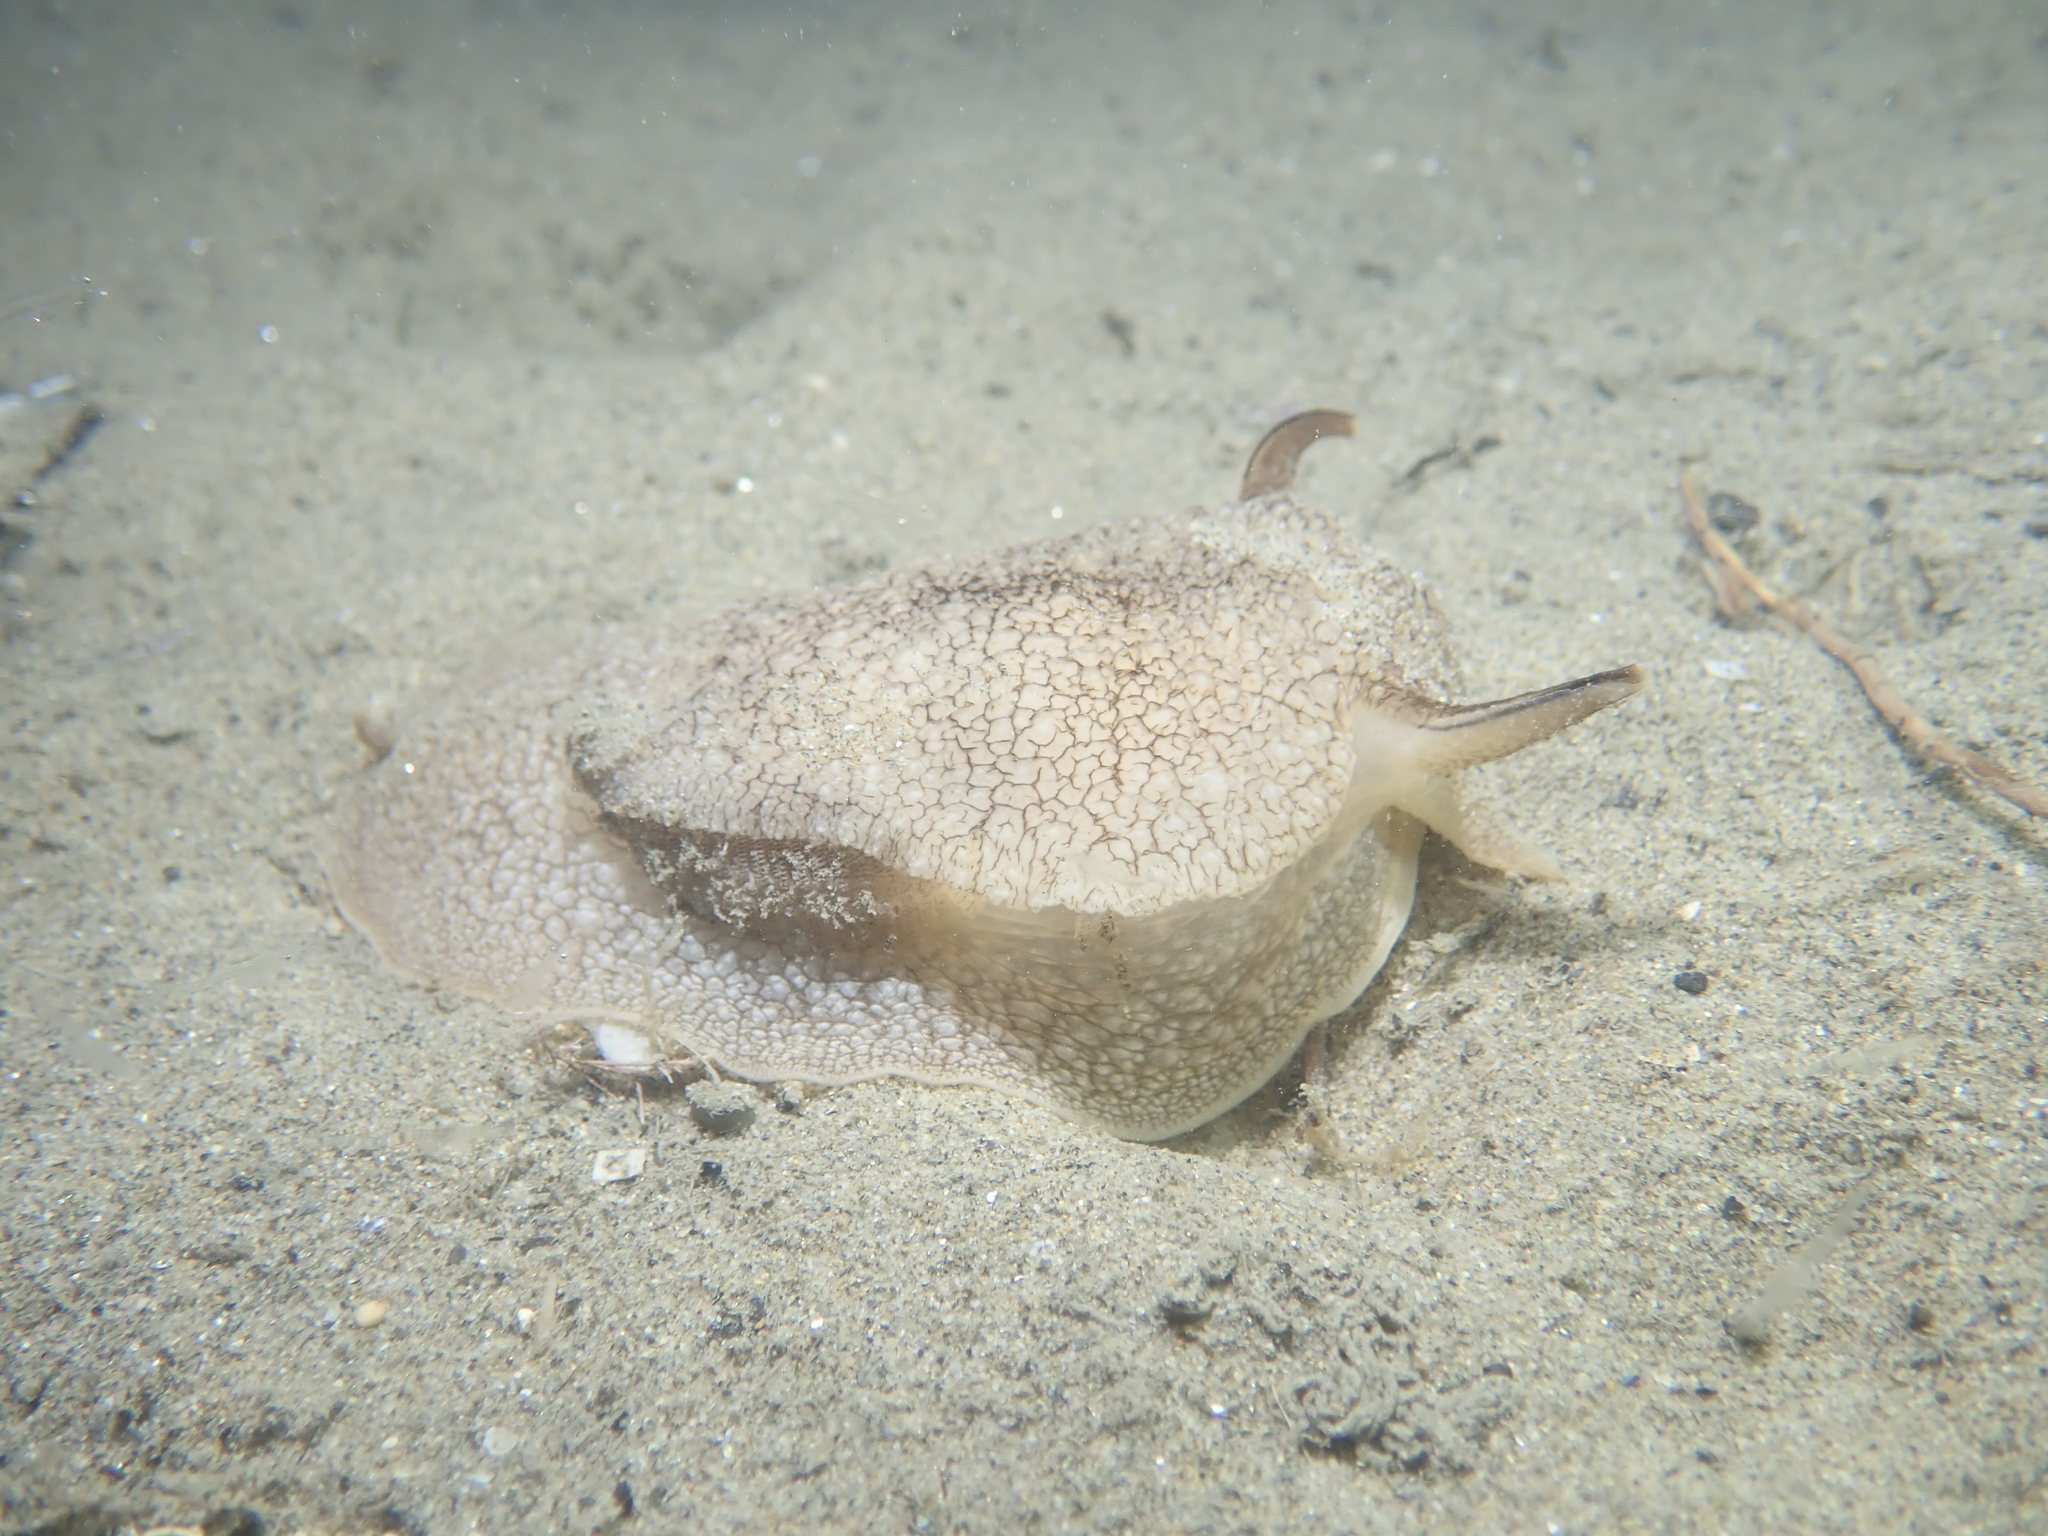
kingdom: Animalia
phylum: Mollusca
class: Gastropoda
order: Pleurobranchida
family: Pleurobranchaeidae
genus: Pleurobranchaea
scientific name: Pleurobranchaea meckeli
